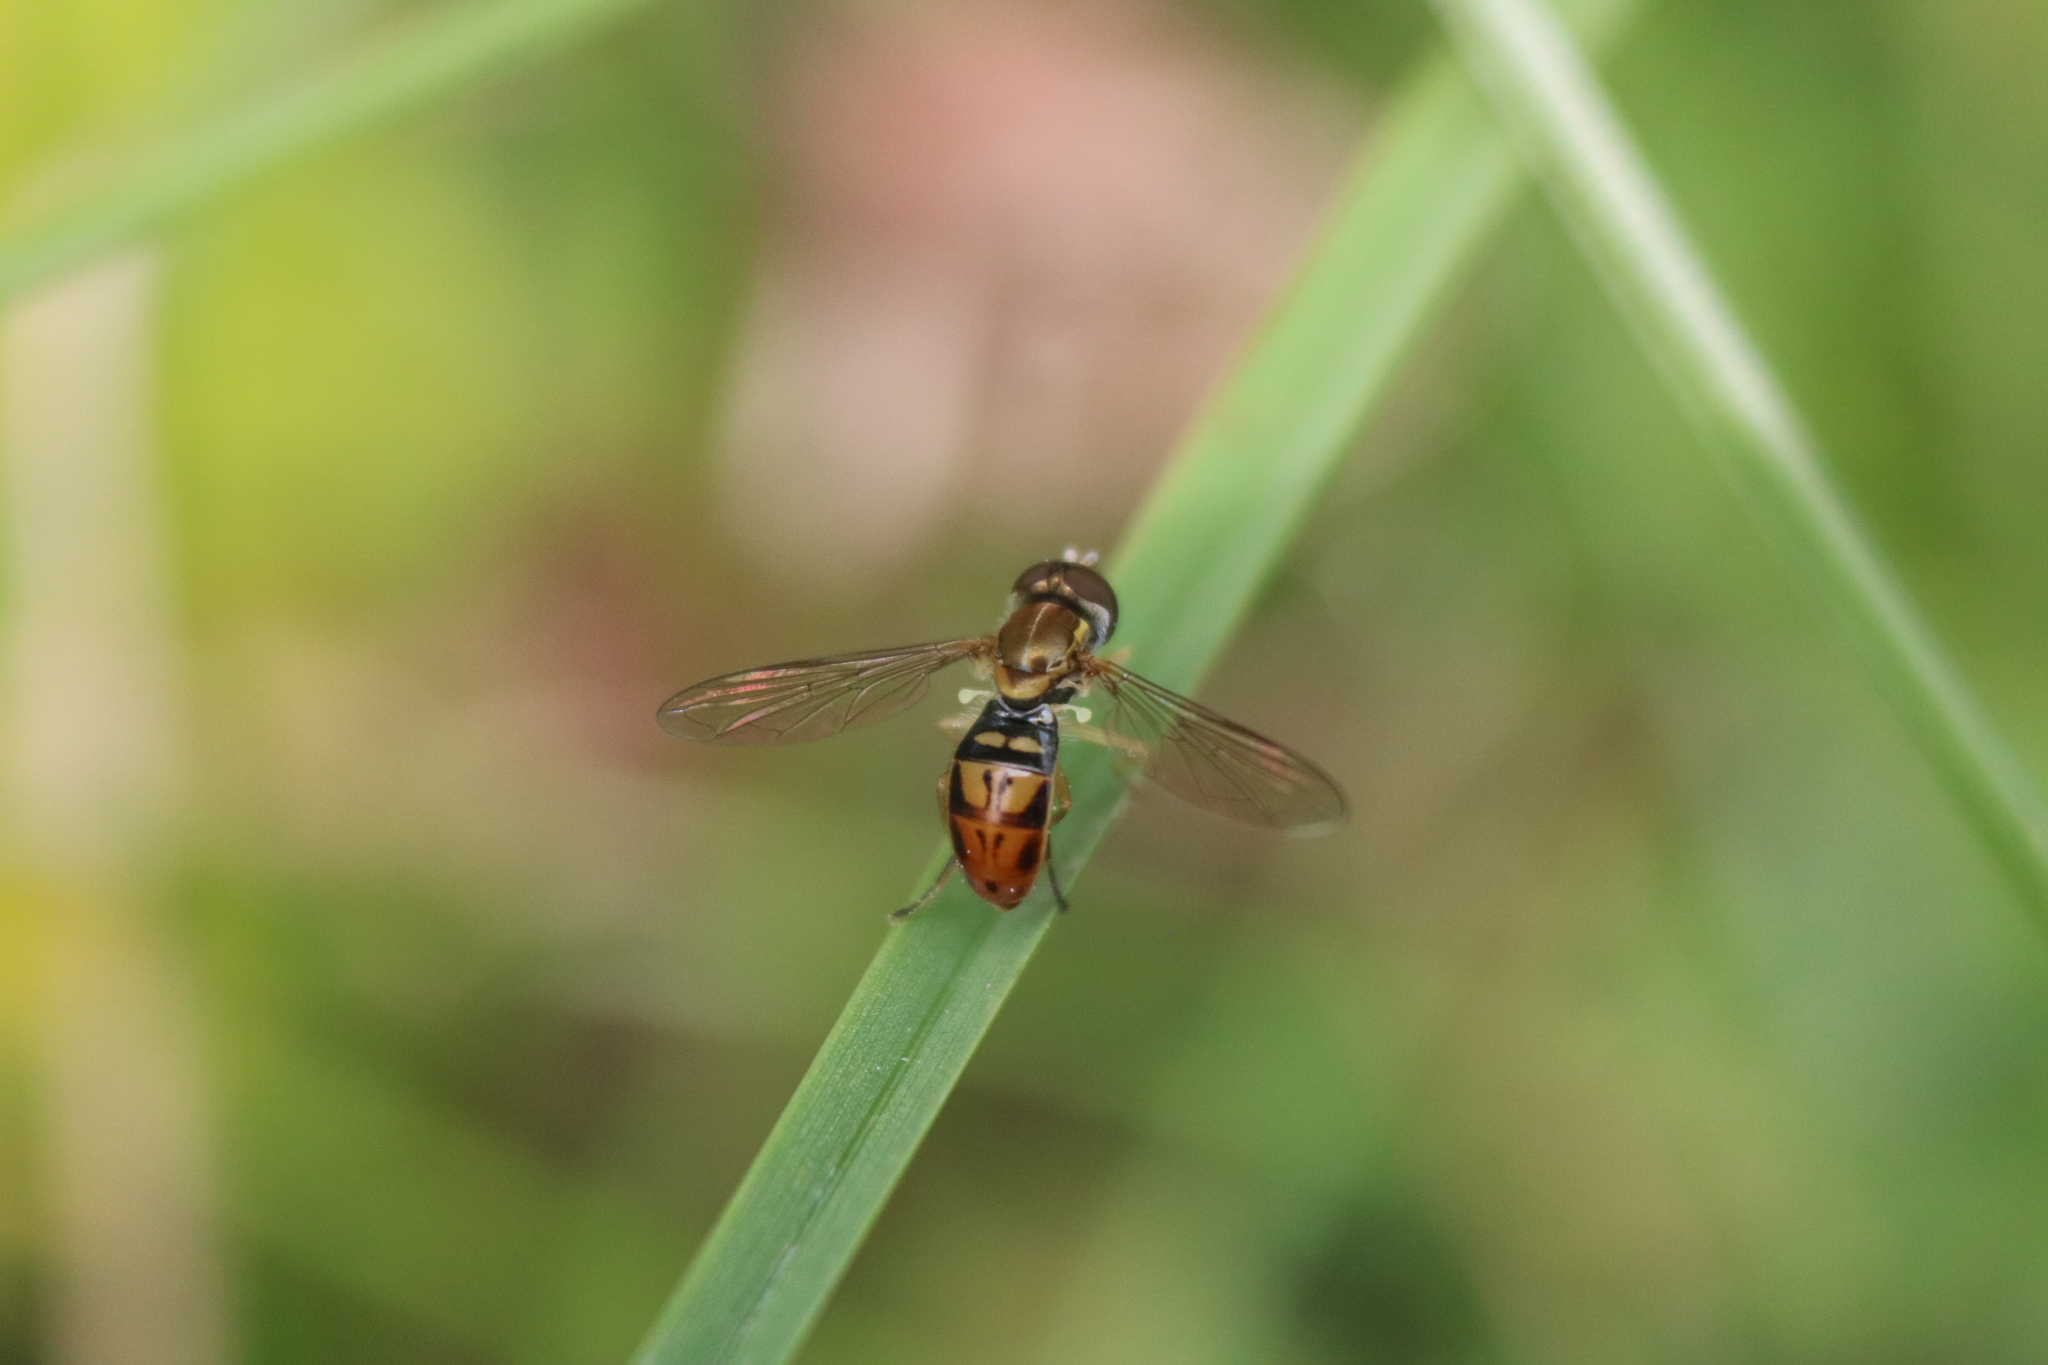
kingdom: Animalia
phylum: Arthropoda
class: Insecta
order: Diptera
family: Syrphidae
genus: Toxomerus
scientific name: Toxomerus marginatus
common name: Syrphid fly
